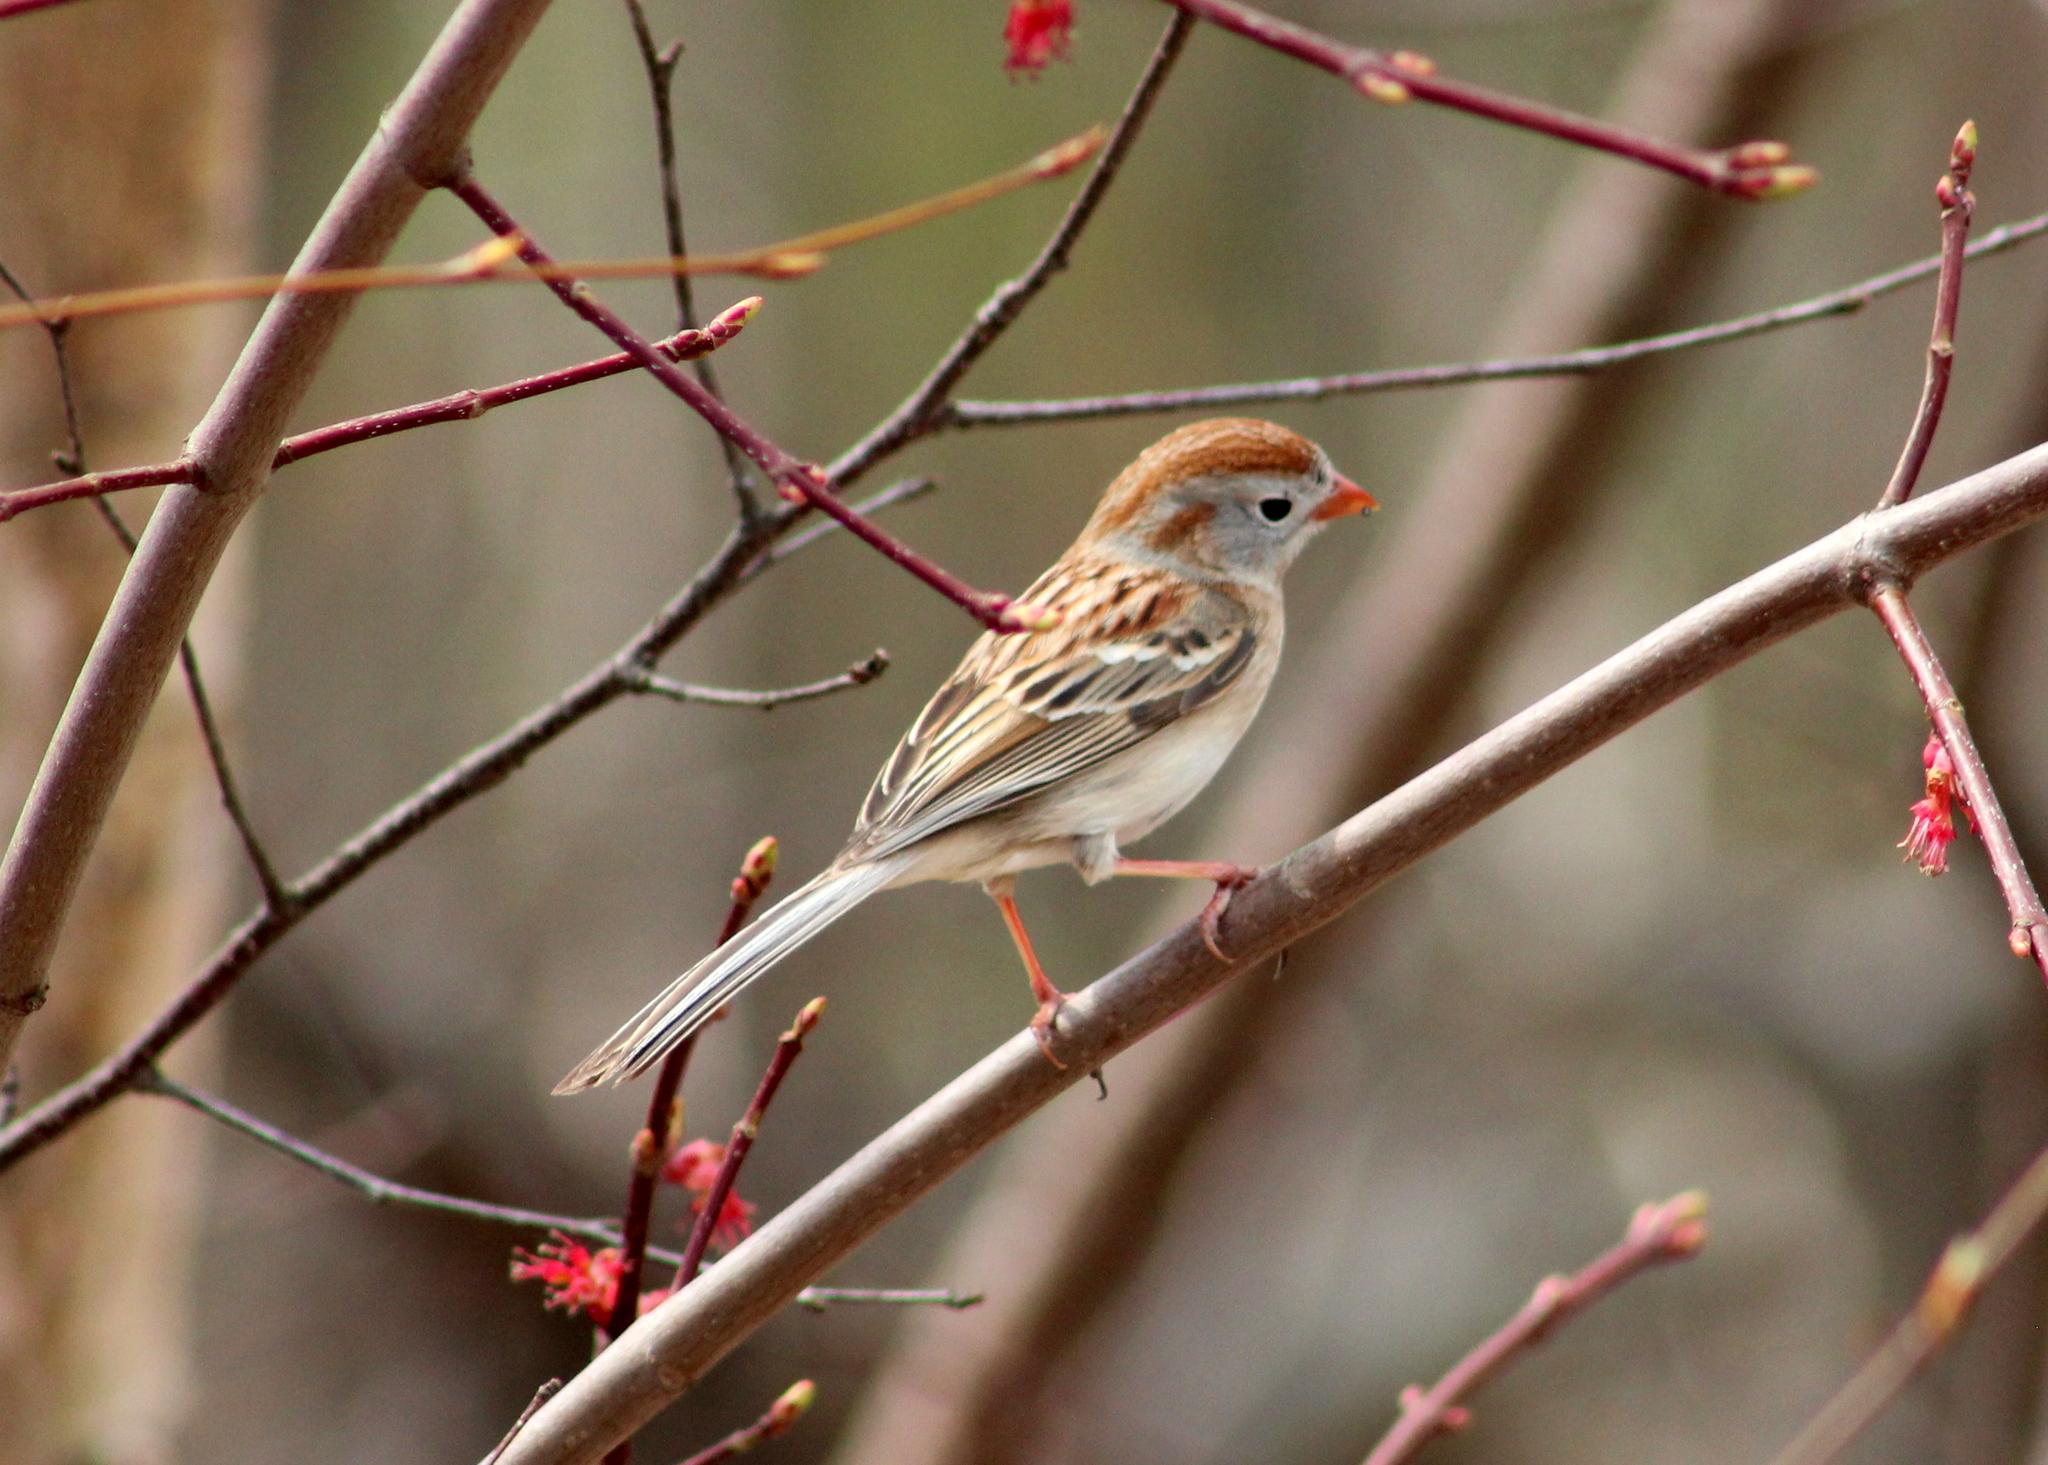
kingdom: Animalia
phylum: Chordata
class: Aves
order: Passeriformes
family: Passerellidae
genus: Spizella
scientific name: Spizella pusilla
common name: Field sparrow
